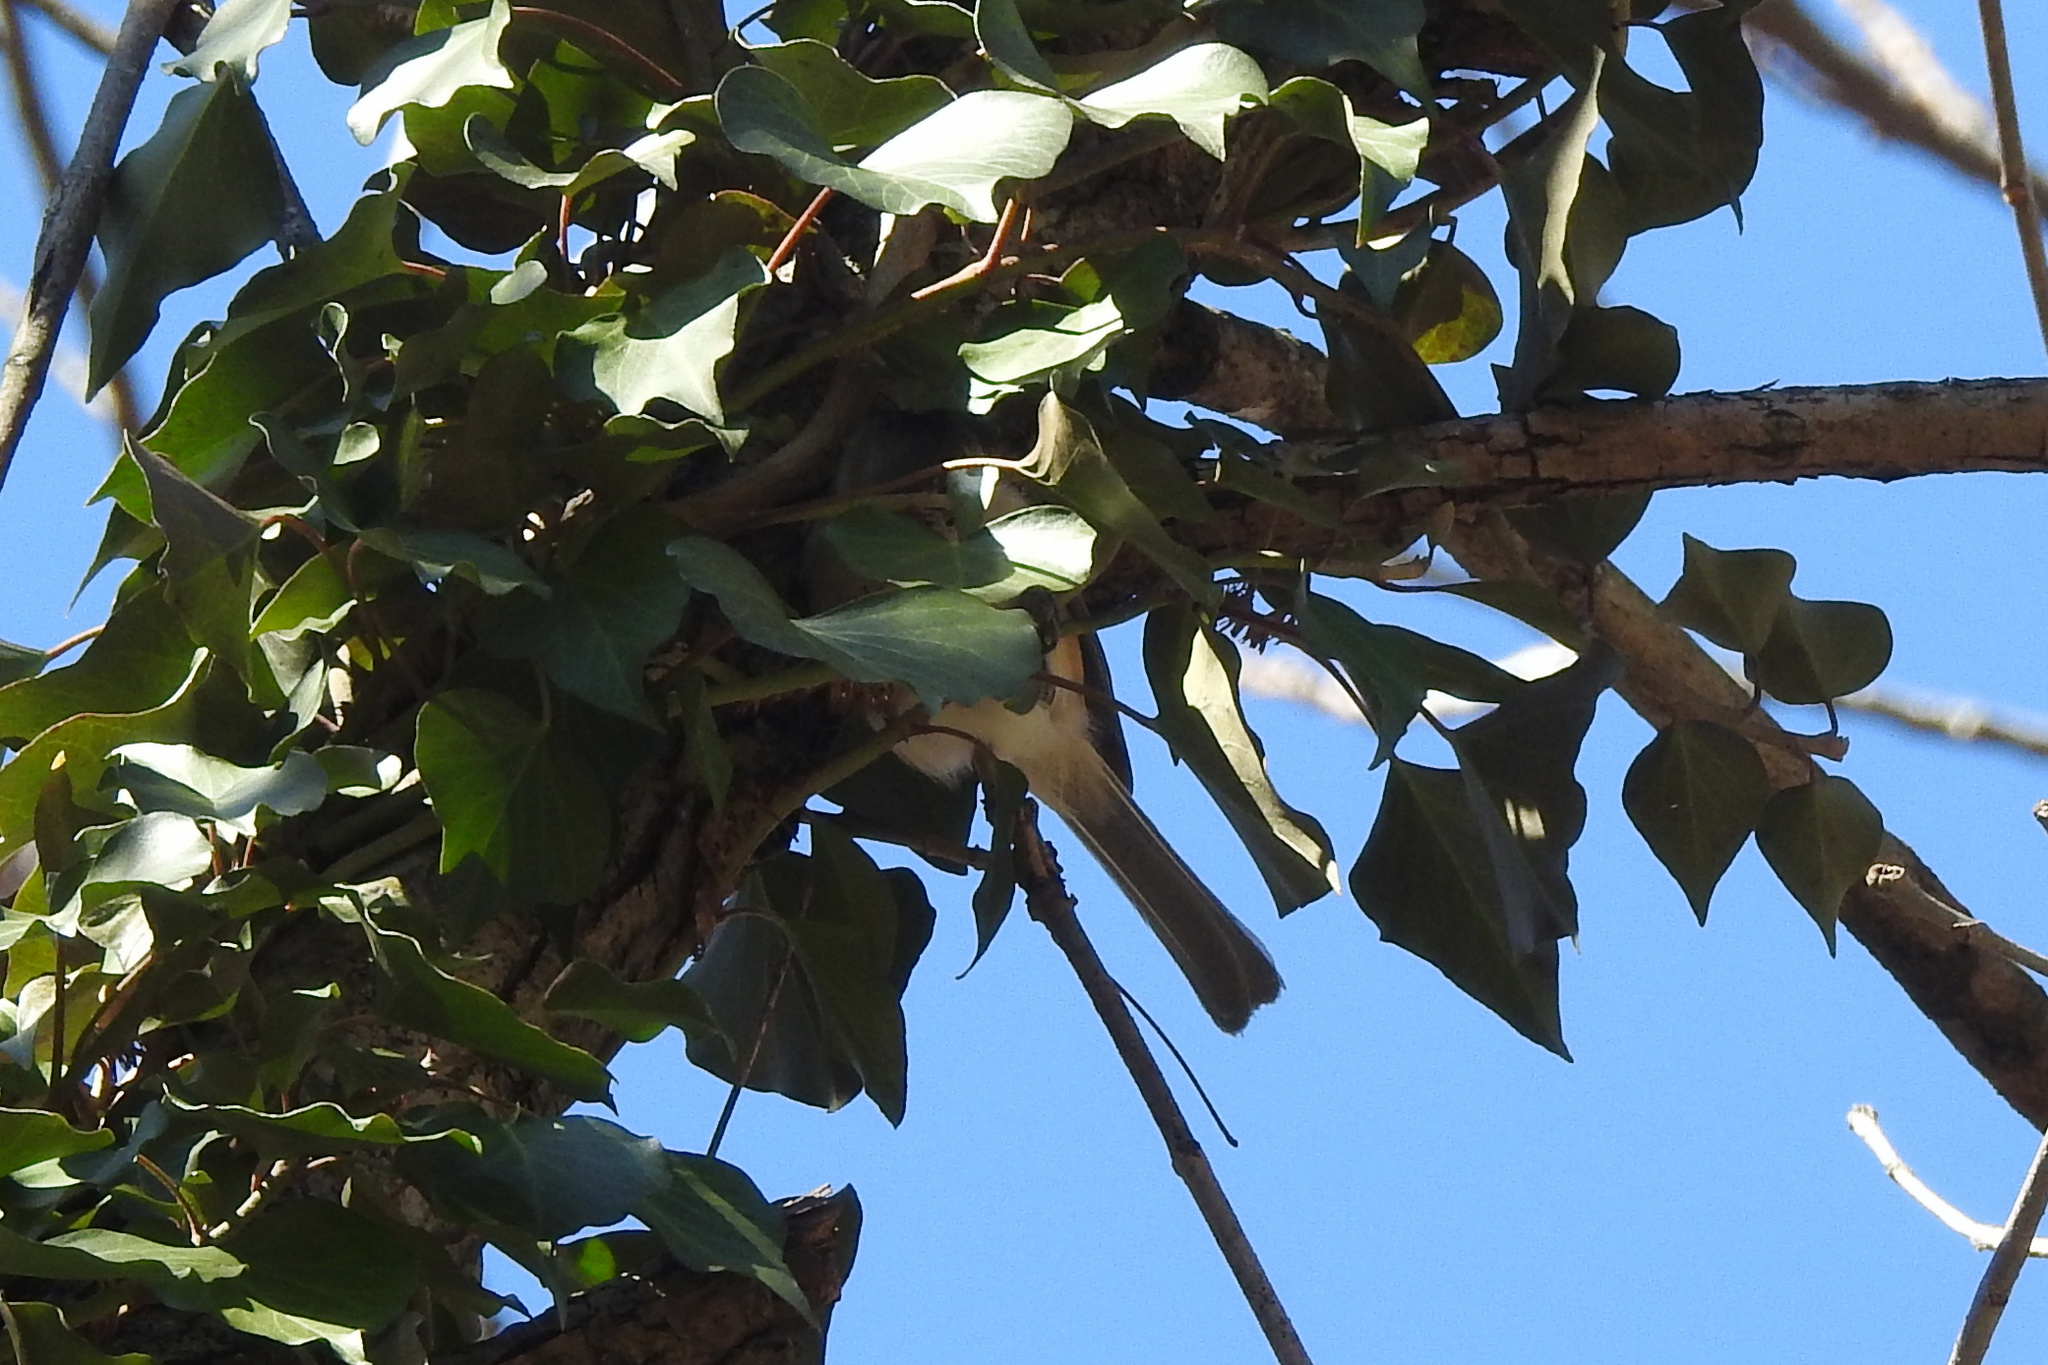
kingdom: Animalia
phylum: Chordata
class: Aves
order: Passeriformes
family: Paridae
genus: Baeolophus
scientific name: Baeolophus bicolor
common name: Tufted titmouse
